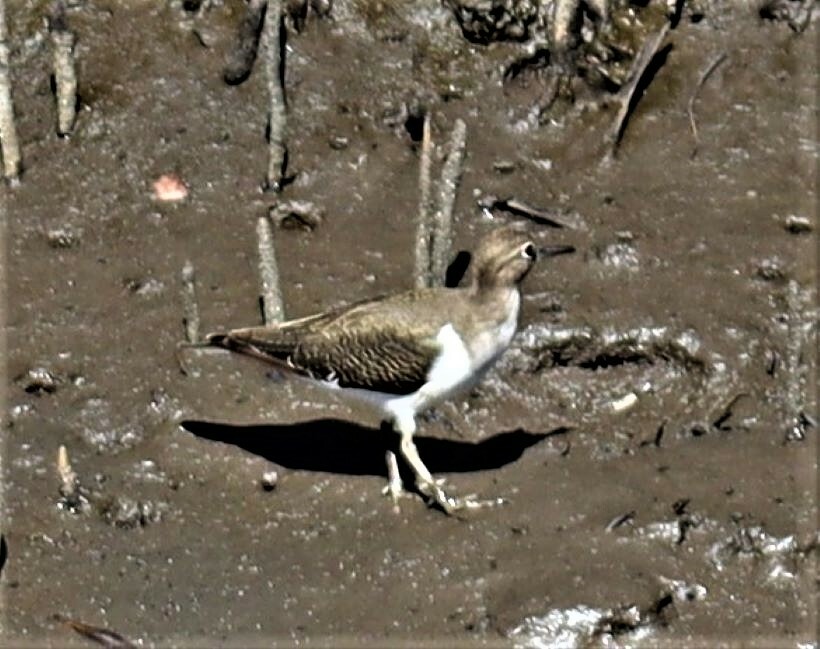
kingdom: Animalia
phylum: Chordata
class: Aves
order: Charadriiformes
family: Scolopacidae
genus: Actitis
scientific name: Actitis hypoleucos
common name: Common sandpiper
